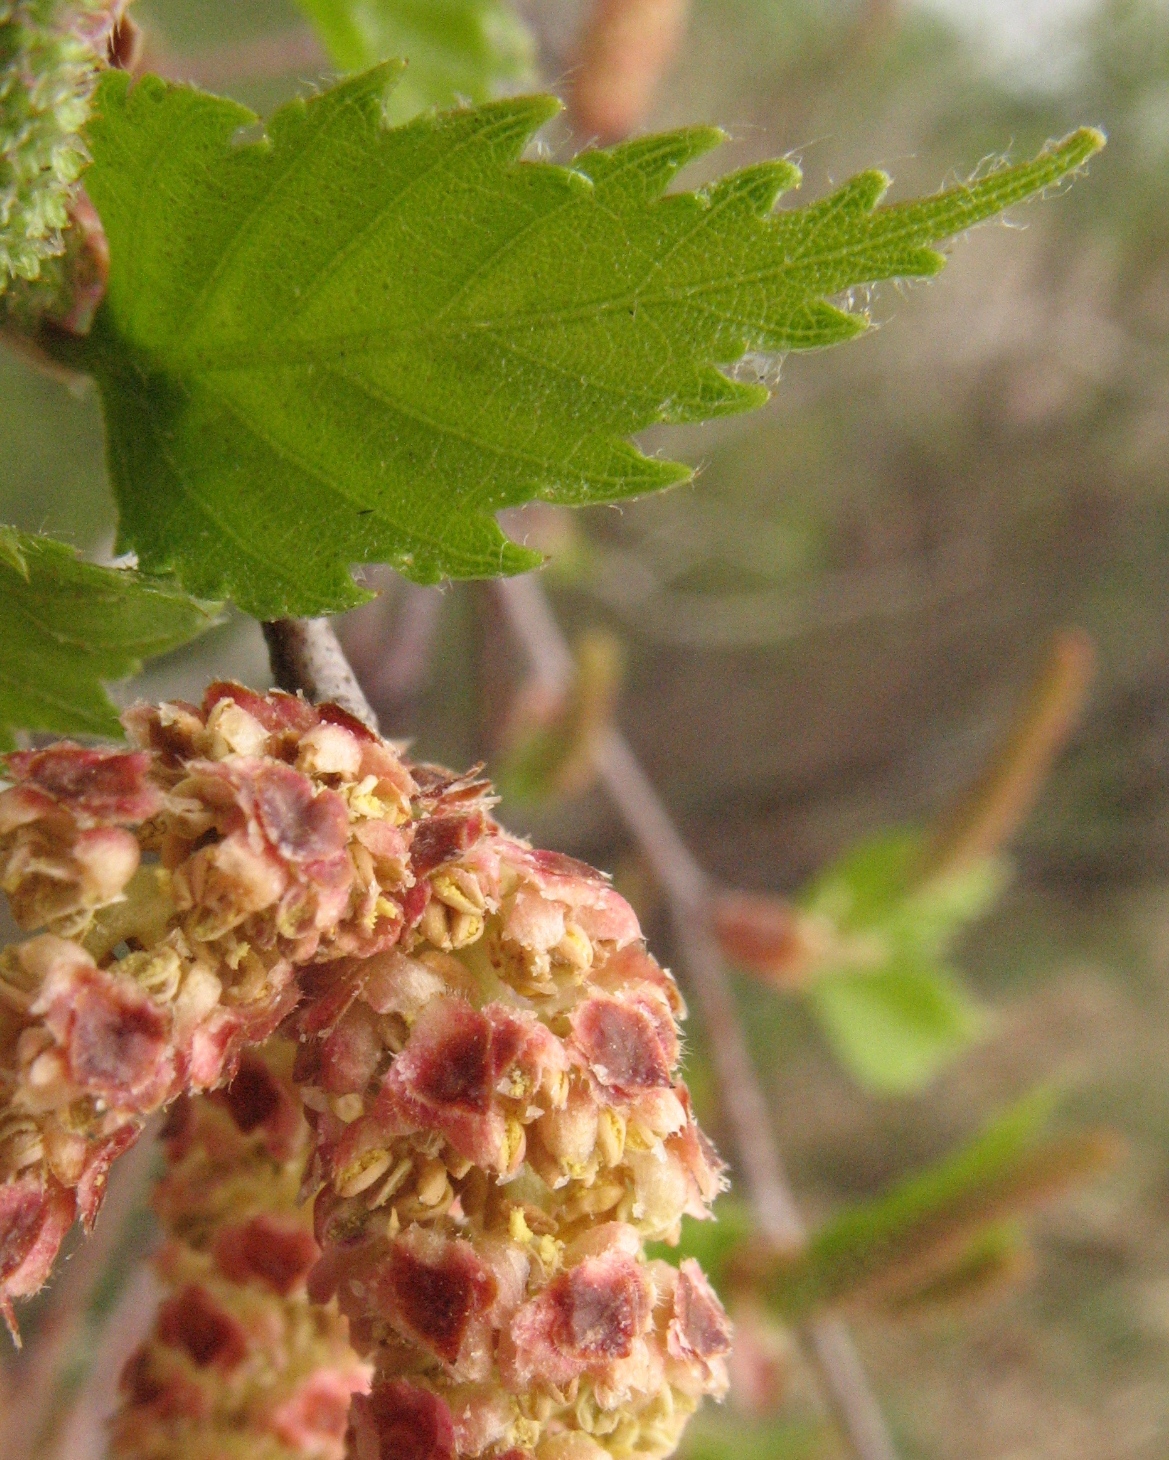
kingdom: Plantae
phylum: Tracheophyta
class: Magnoliopsida
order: Fagales
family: Betulaceae
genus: Betula
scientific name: Betula pendula
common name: Silver birch
